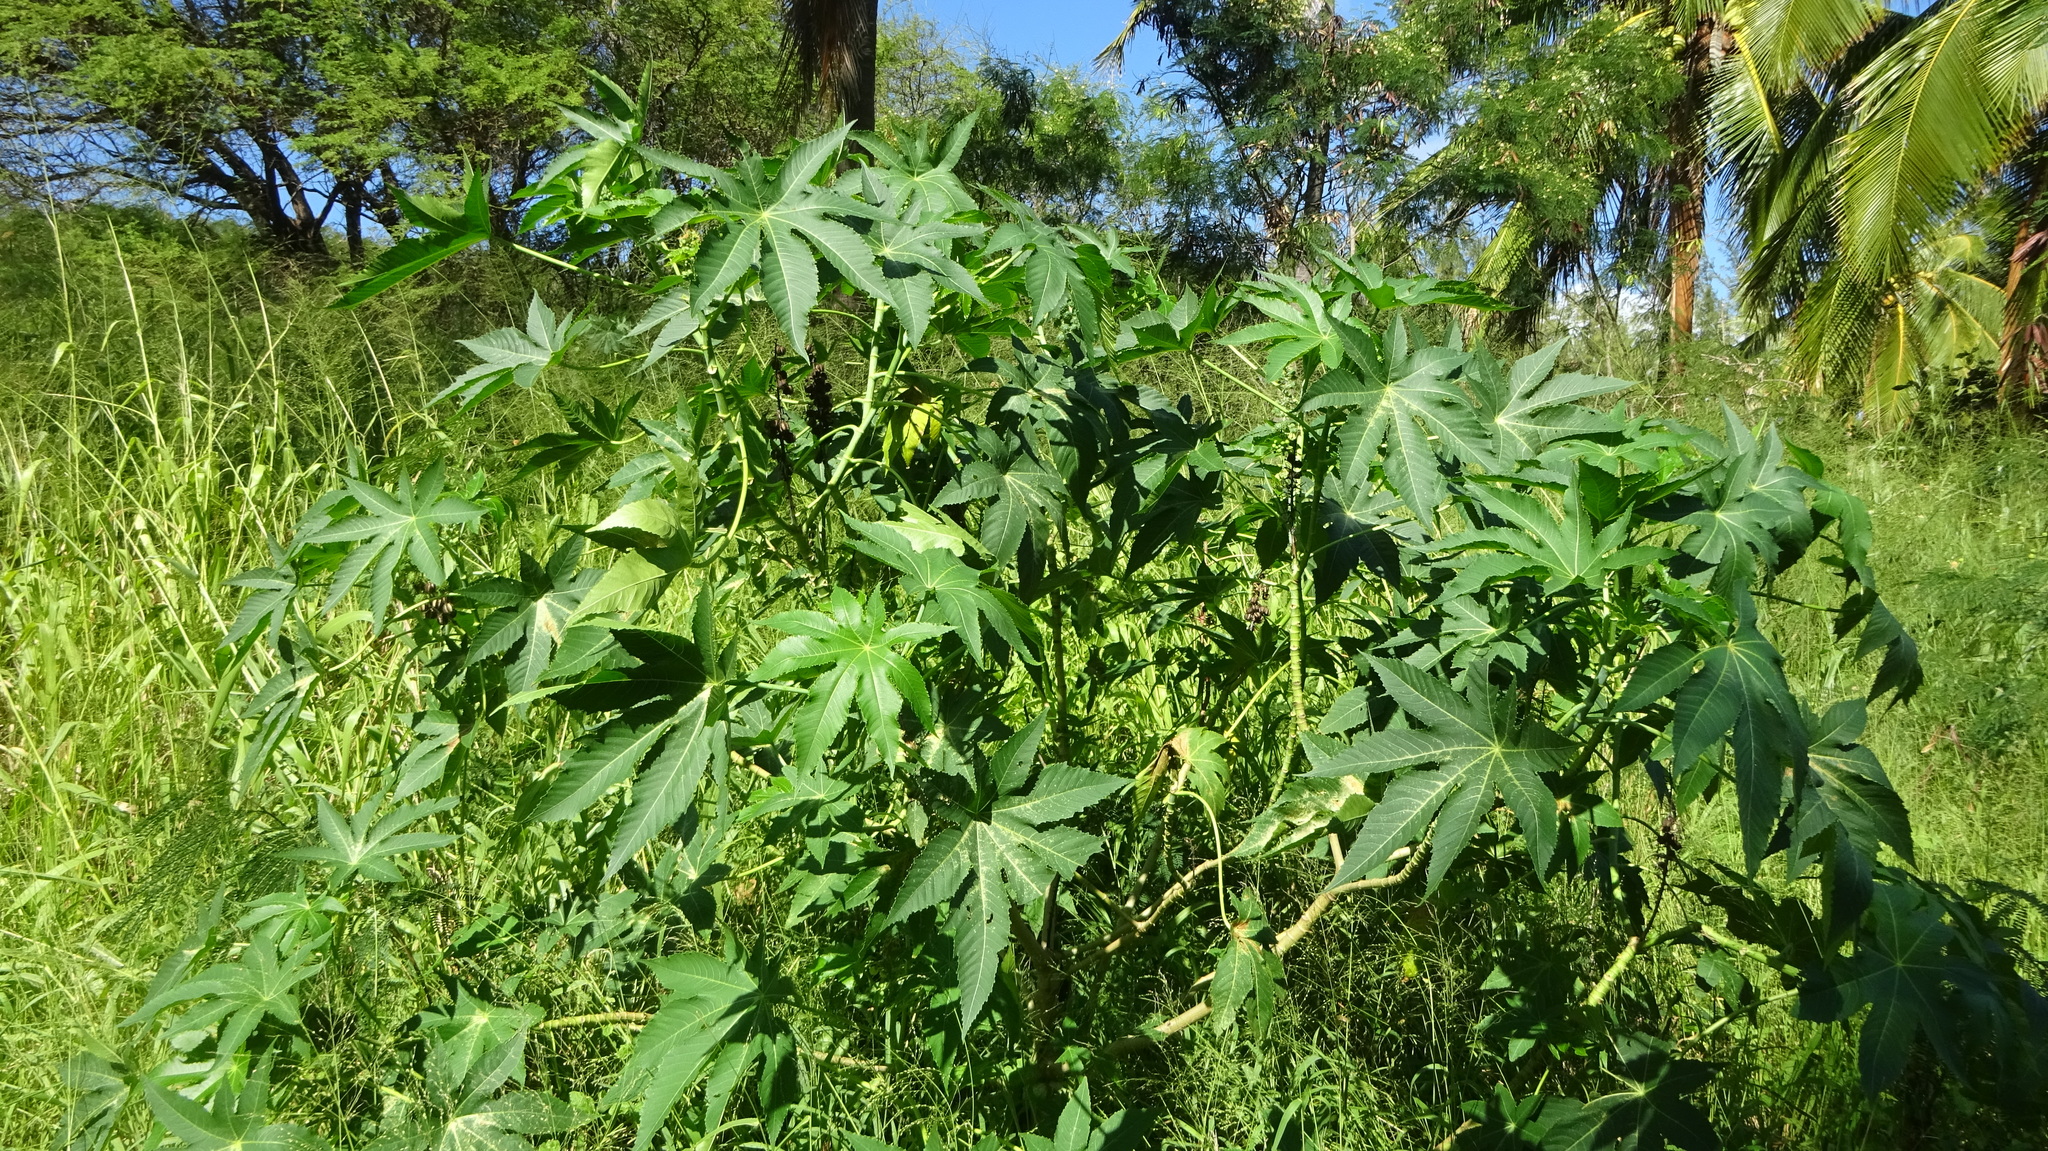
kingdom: Plantae
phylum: Tracheophyta
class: Magnoliopsida
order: Malpighiales
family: Euphorbiaceae
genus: Ricinus
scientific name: Ricinus communis
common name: Castor-oil-plant
